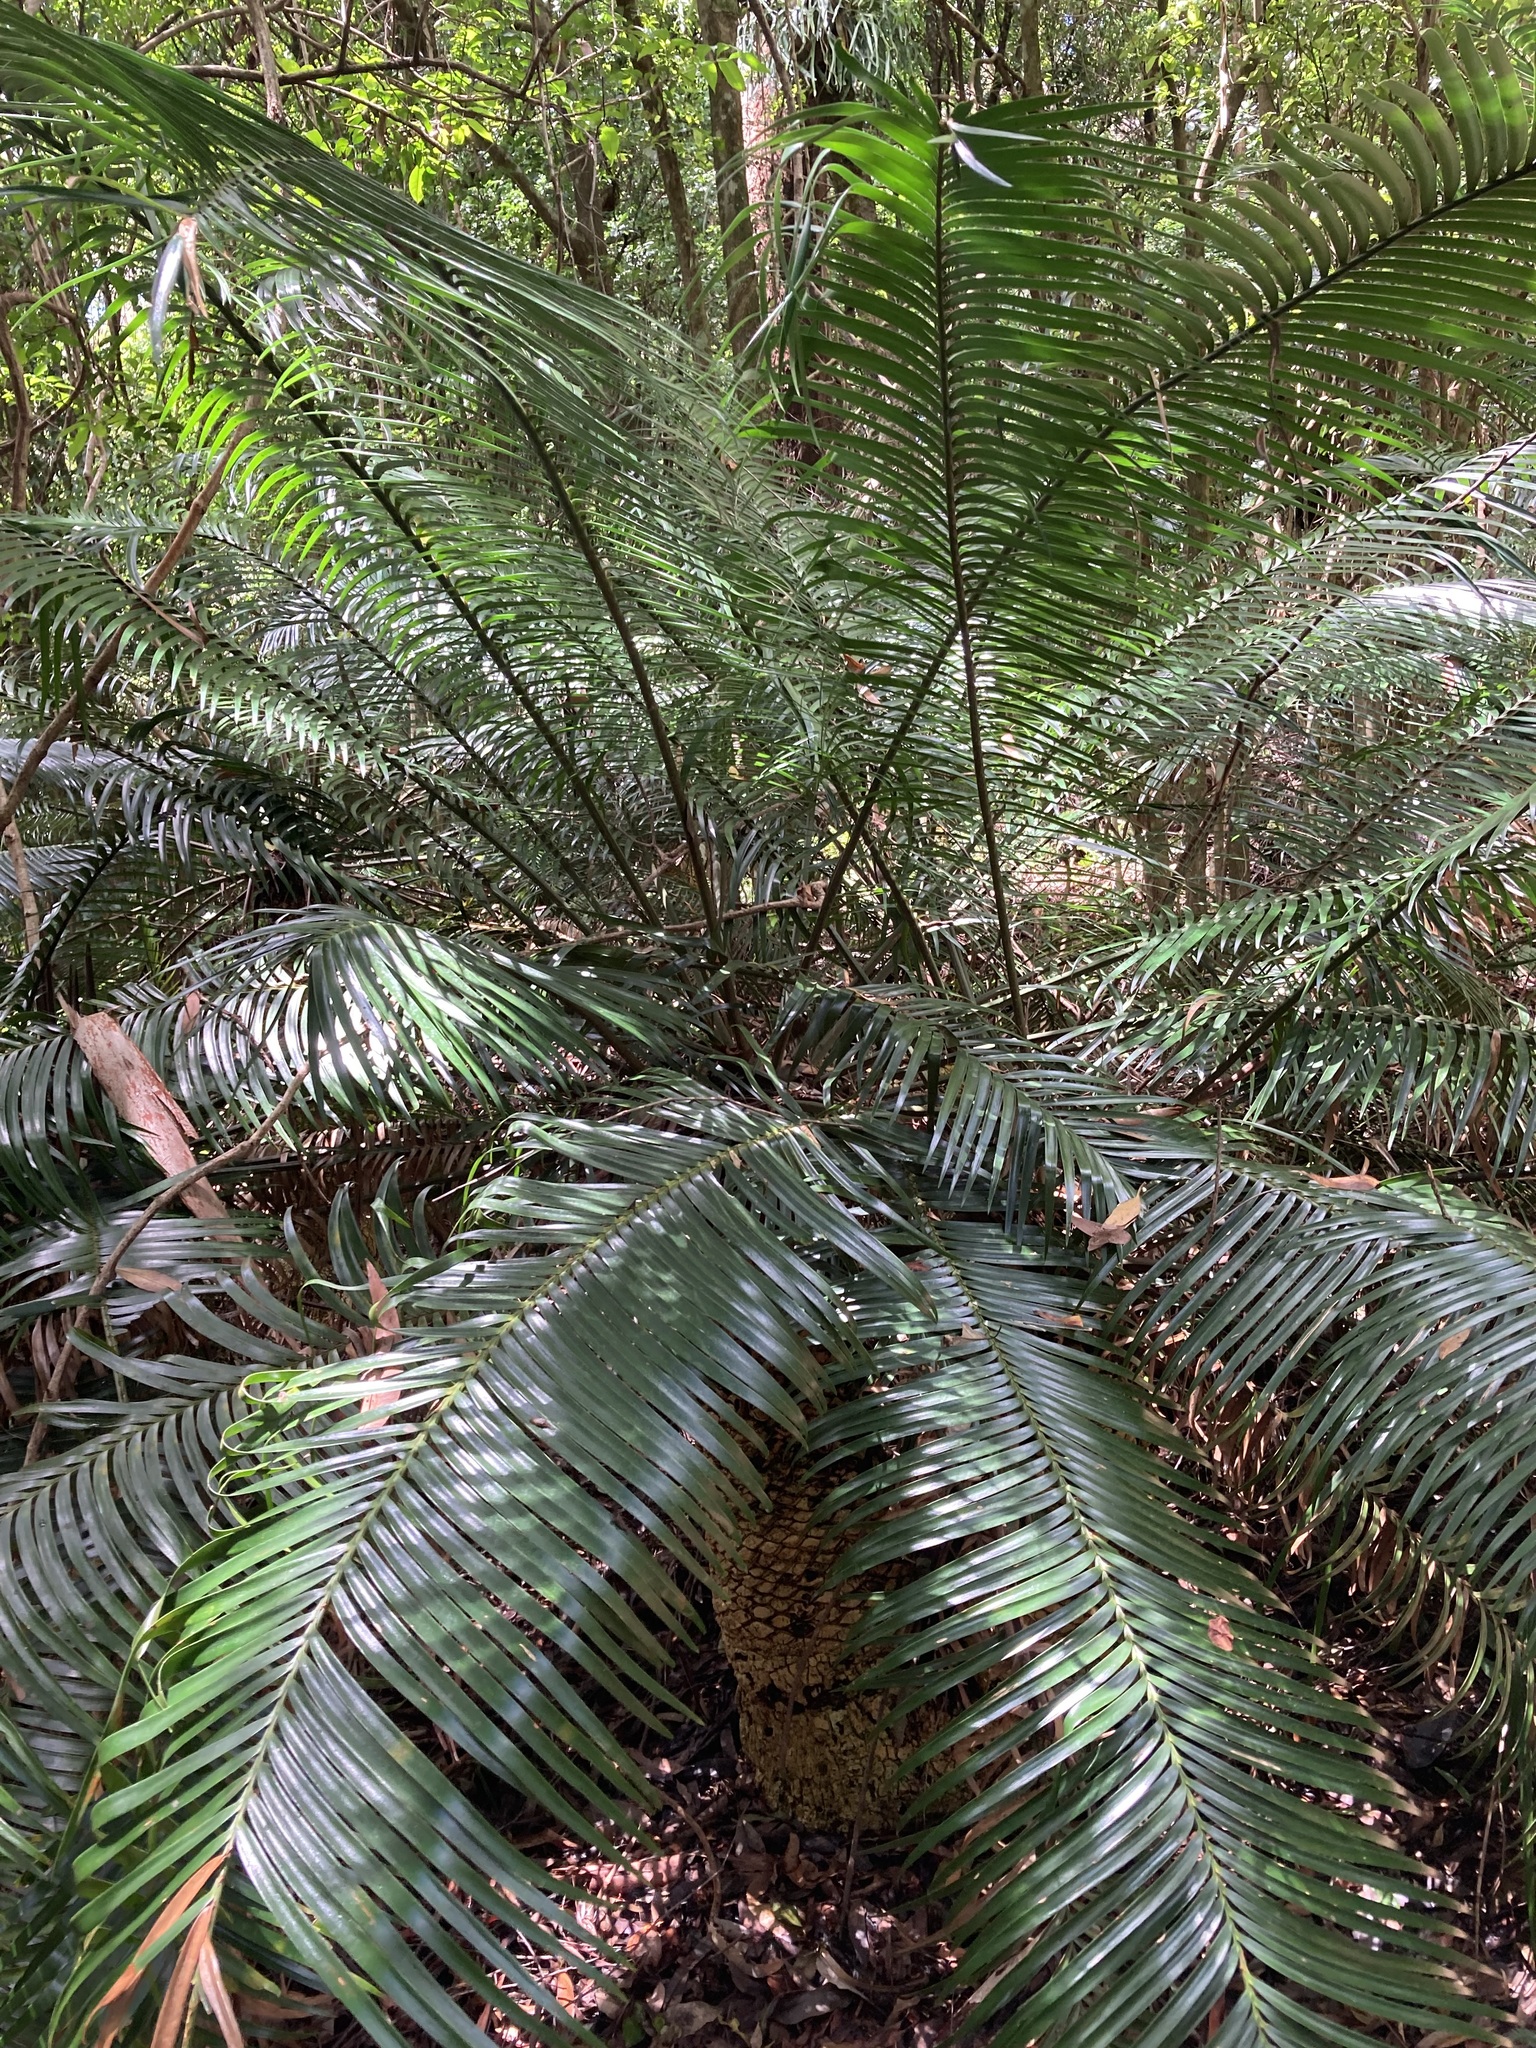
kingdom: Plantae
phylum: Tracheophyta
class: Cycadopsida
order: Cycadales
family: Zamiaceae
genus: Lepidozamia
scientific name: Lepidozamia peroffskyana
